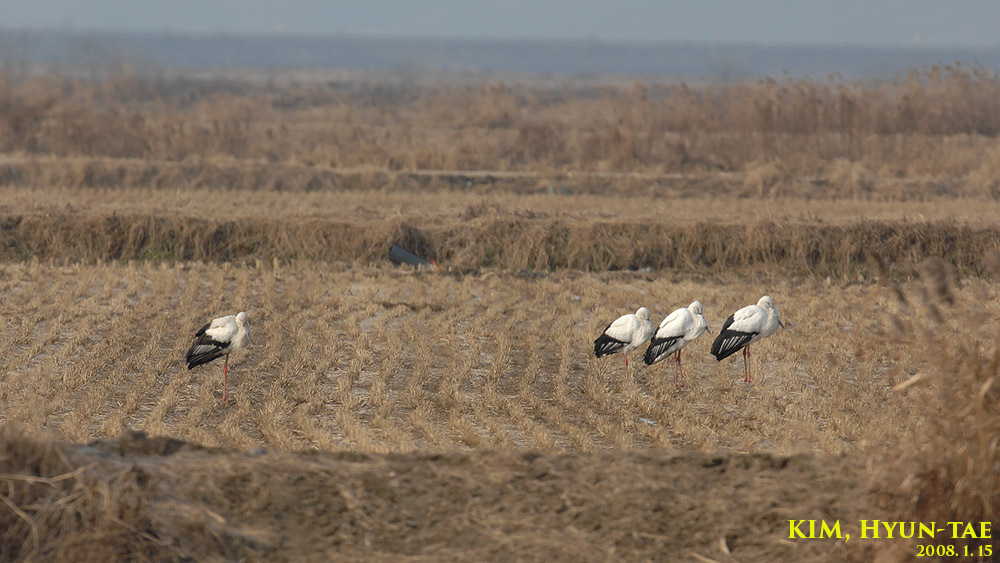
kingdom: Animalia
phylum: Chordata
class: Aves
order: Ciconiiformes
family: Ciconiidae
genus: Ciconia
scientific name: Ciconia boyciana
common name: Oriental stork
